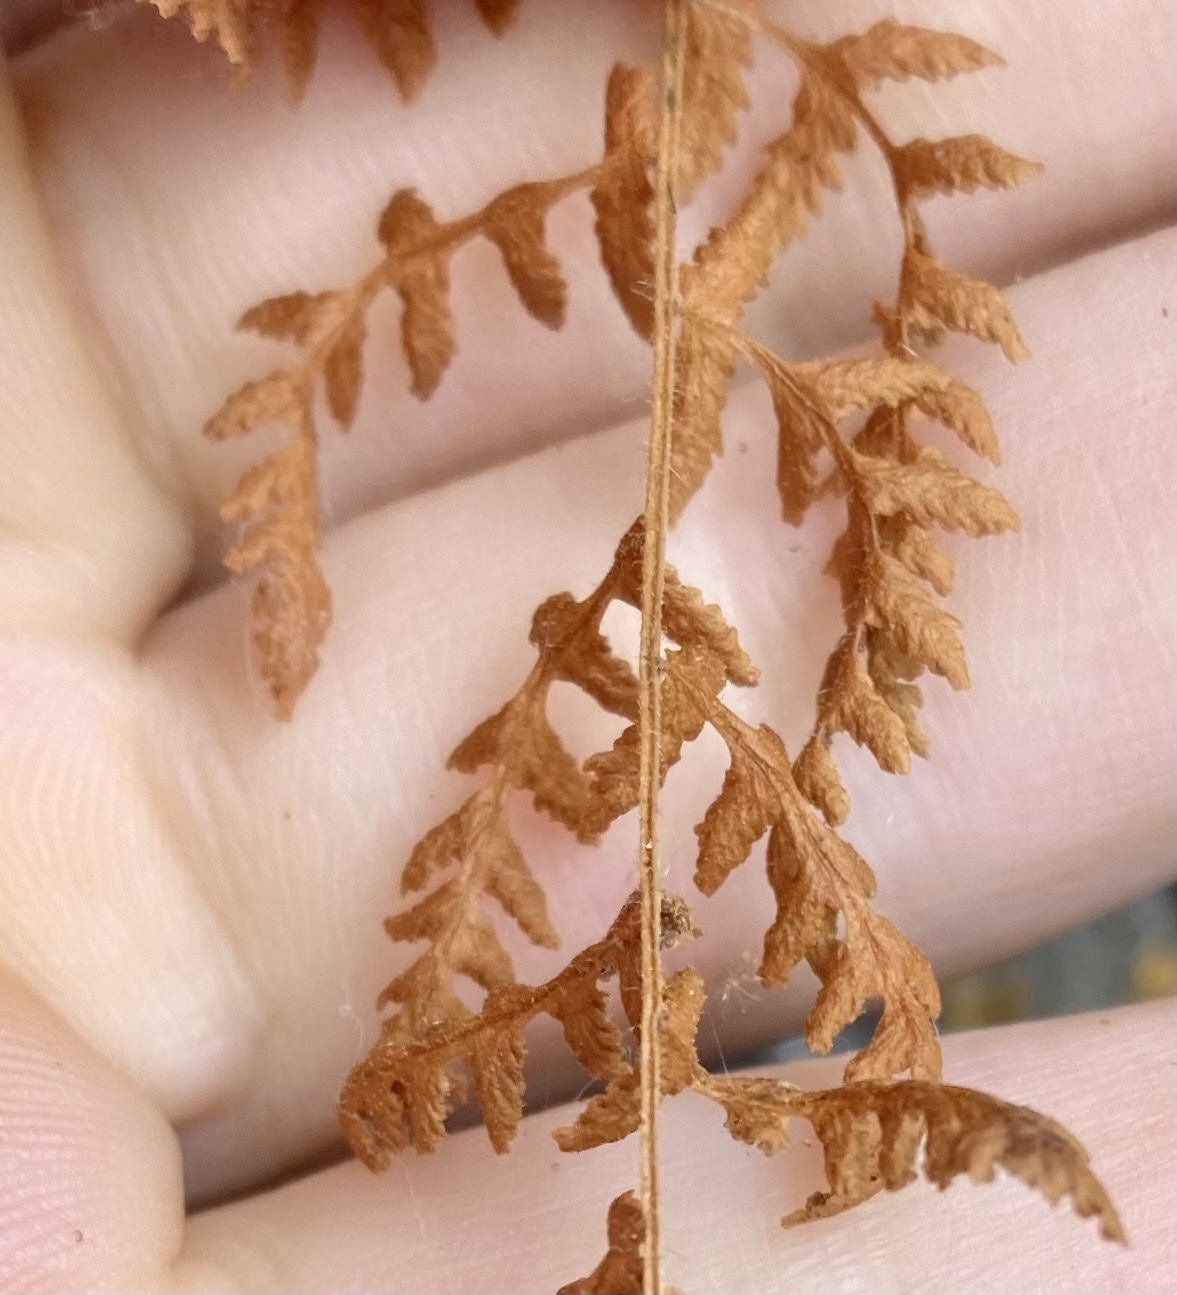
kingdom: Plantae
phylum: Tracheophyta
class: Polypodiopsida
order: Polypodiales
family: Woodsiaceae
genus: Physematium
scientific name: Physematium scopulinum
